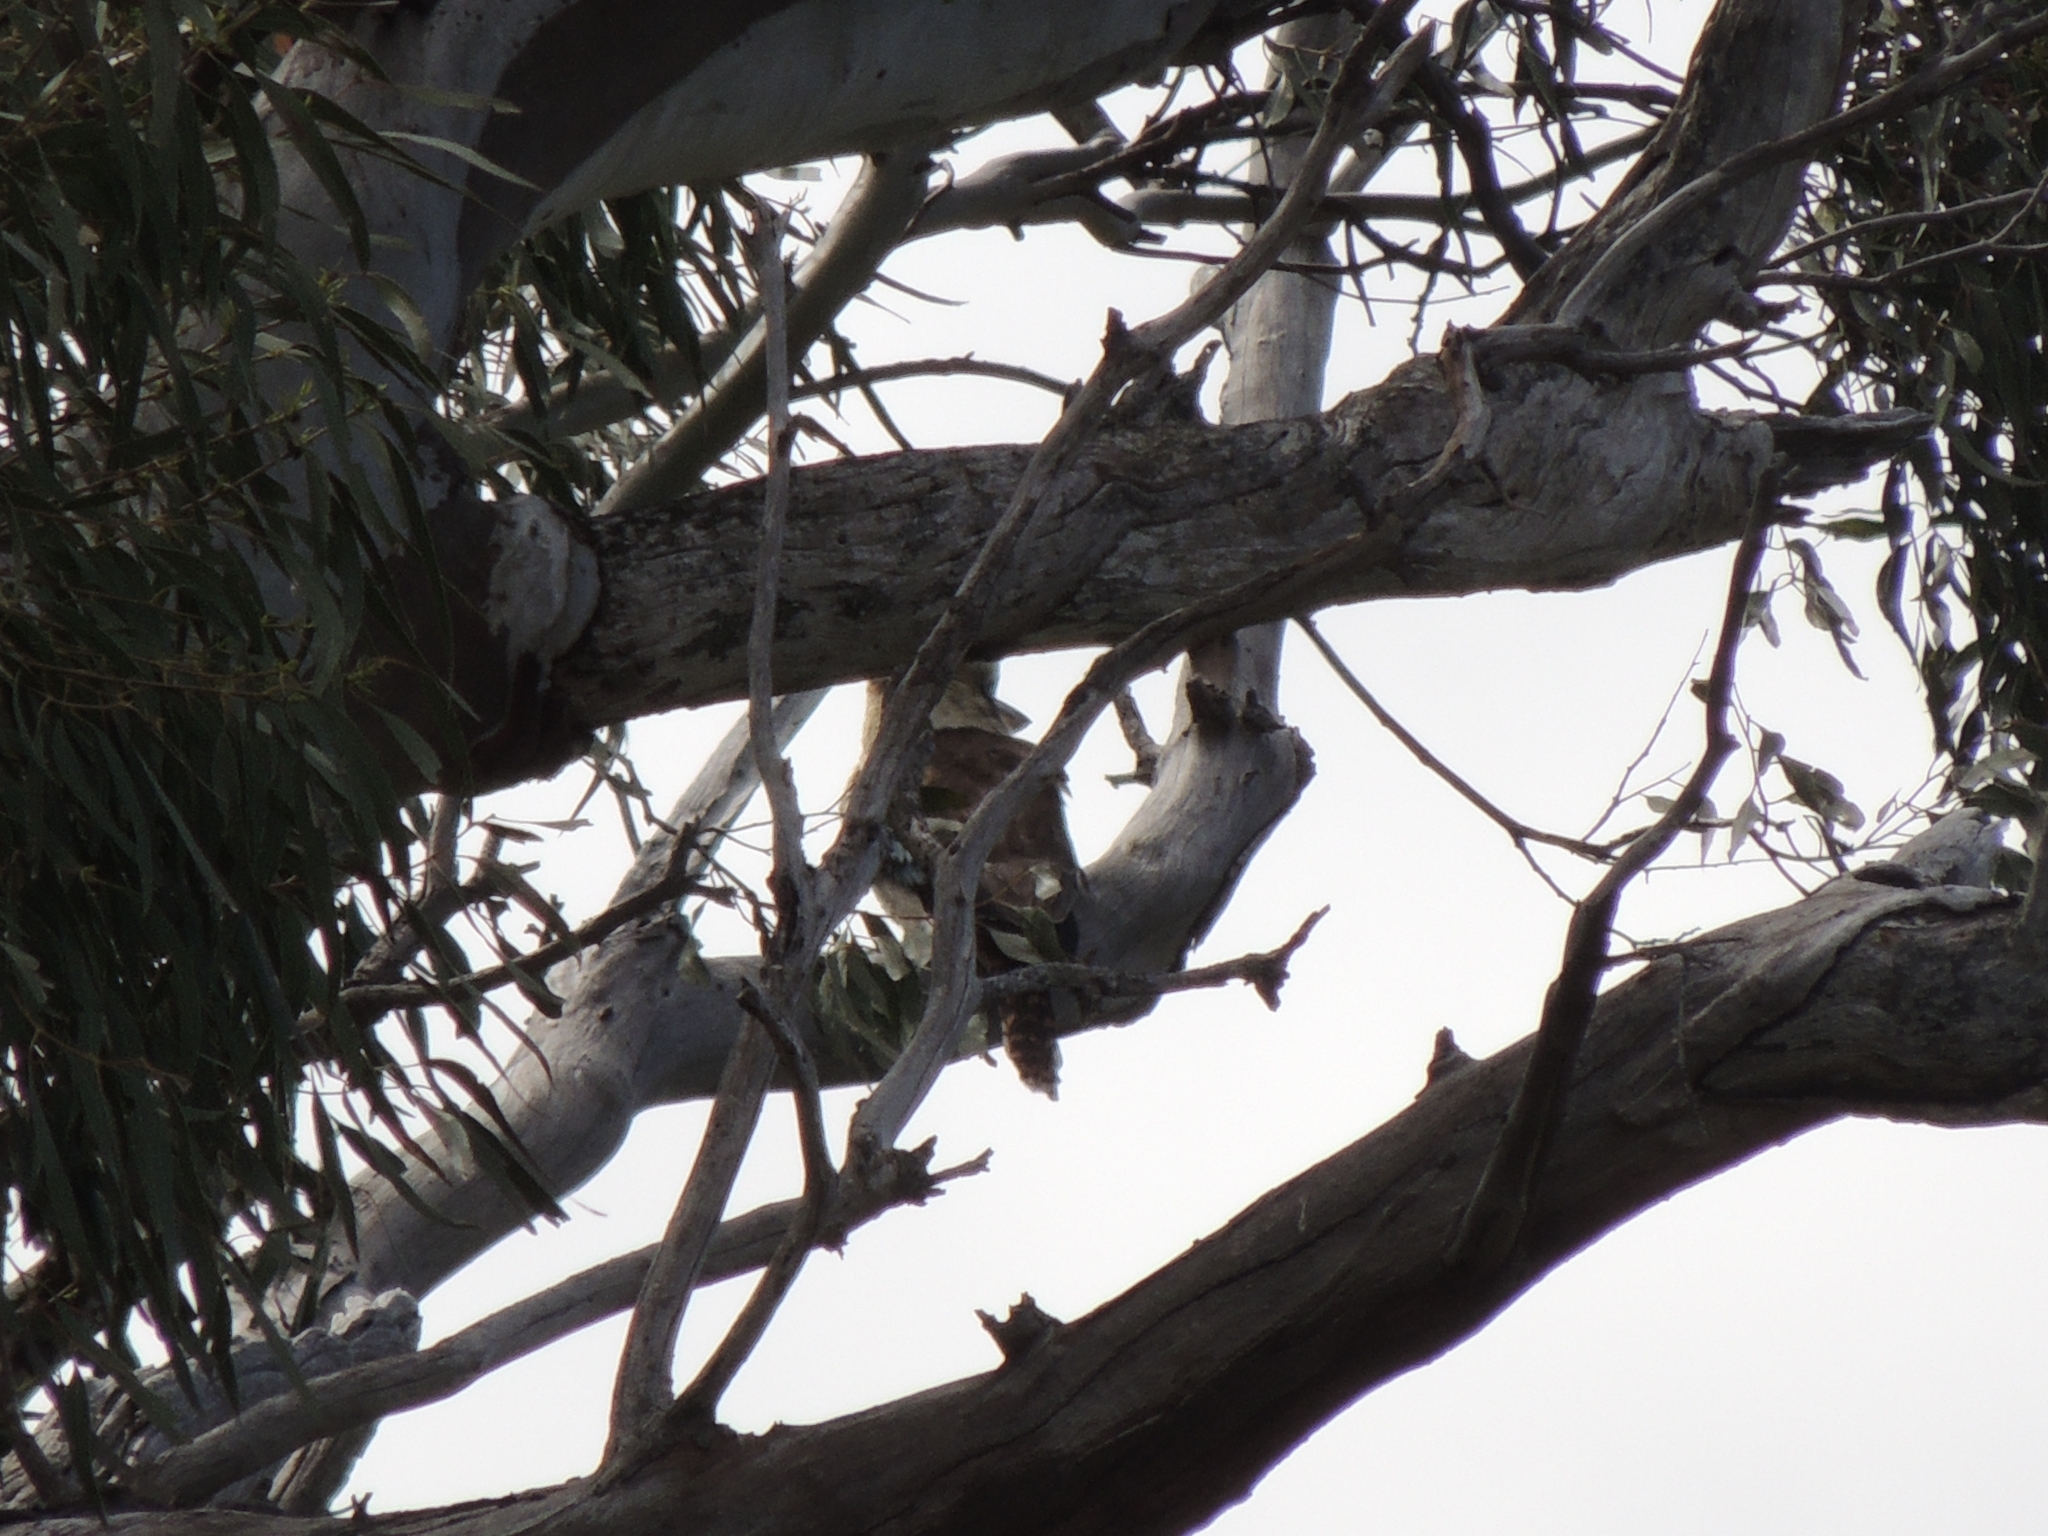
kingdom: Animalia
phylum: Chordata
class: Aves
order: Coraciiformes
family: Alcedinidae
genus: Dacelo
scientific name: Dacelo novaeguineae
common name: Laughing kookaburra
